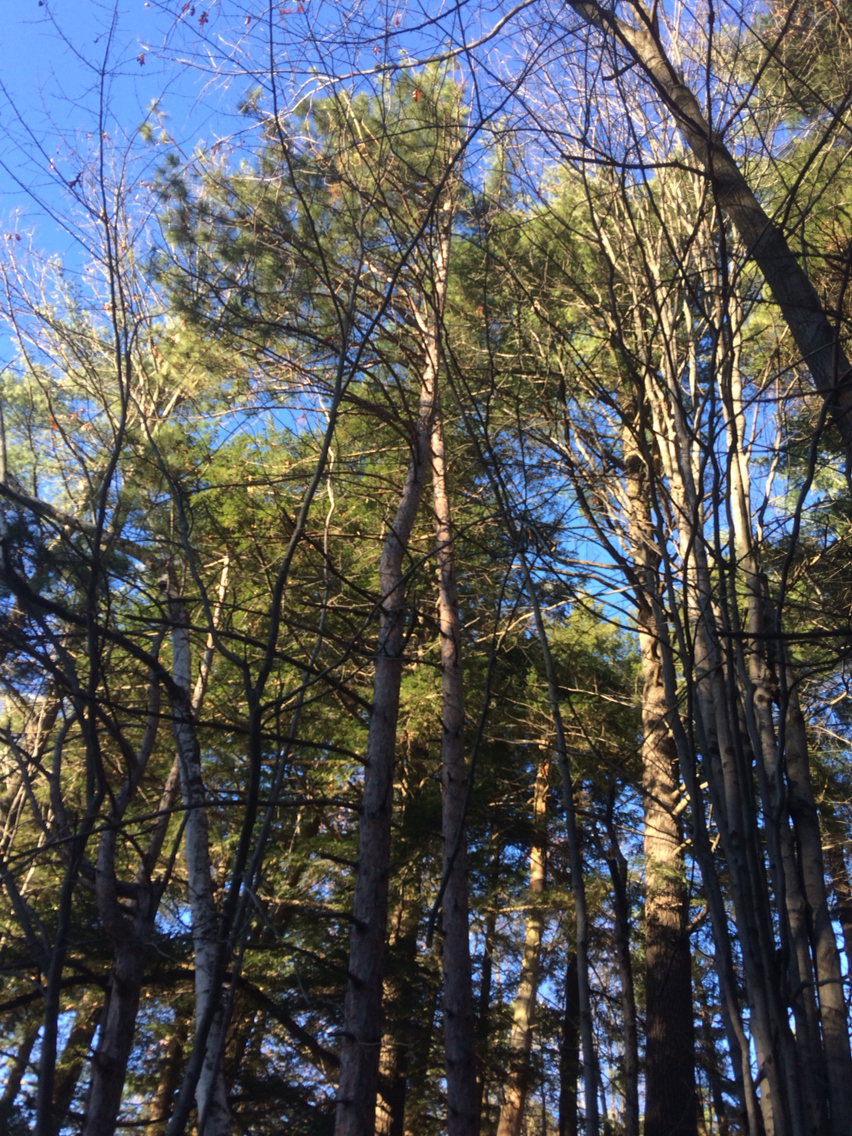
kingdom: Plantae
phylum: Tracheophyta
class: Pinopsida
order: Pinales
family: Pinaceae
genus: Pinus
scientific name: Pinus resinosa
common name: Norway pine
